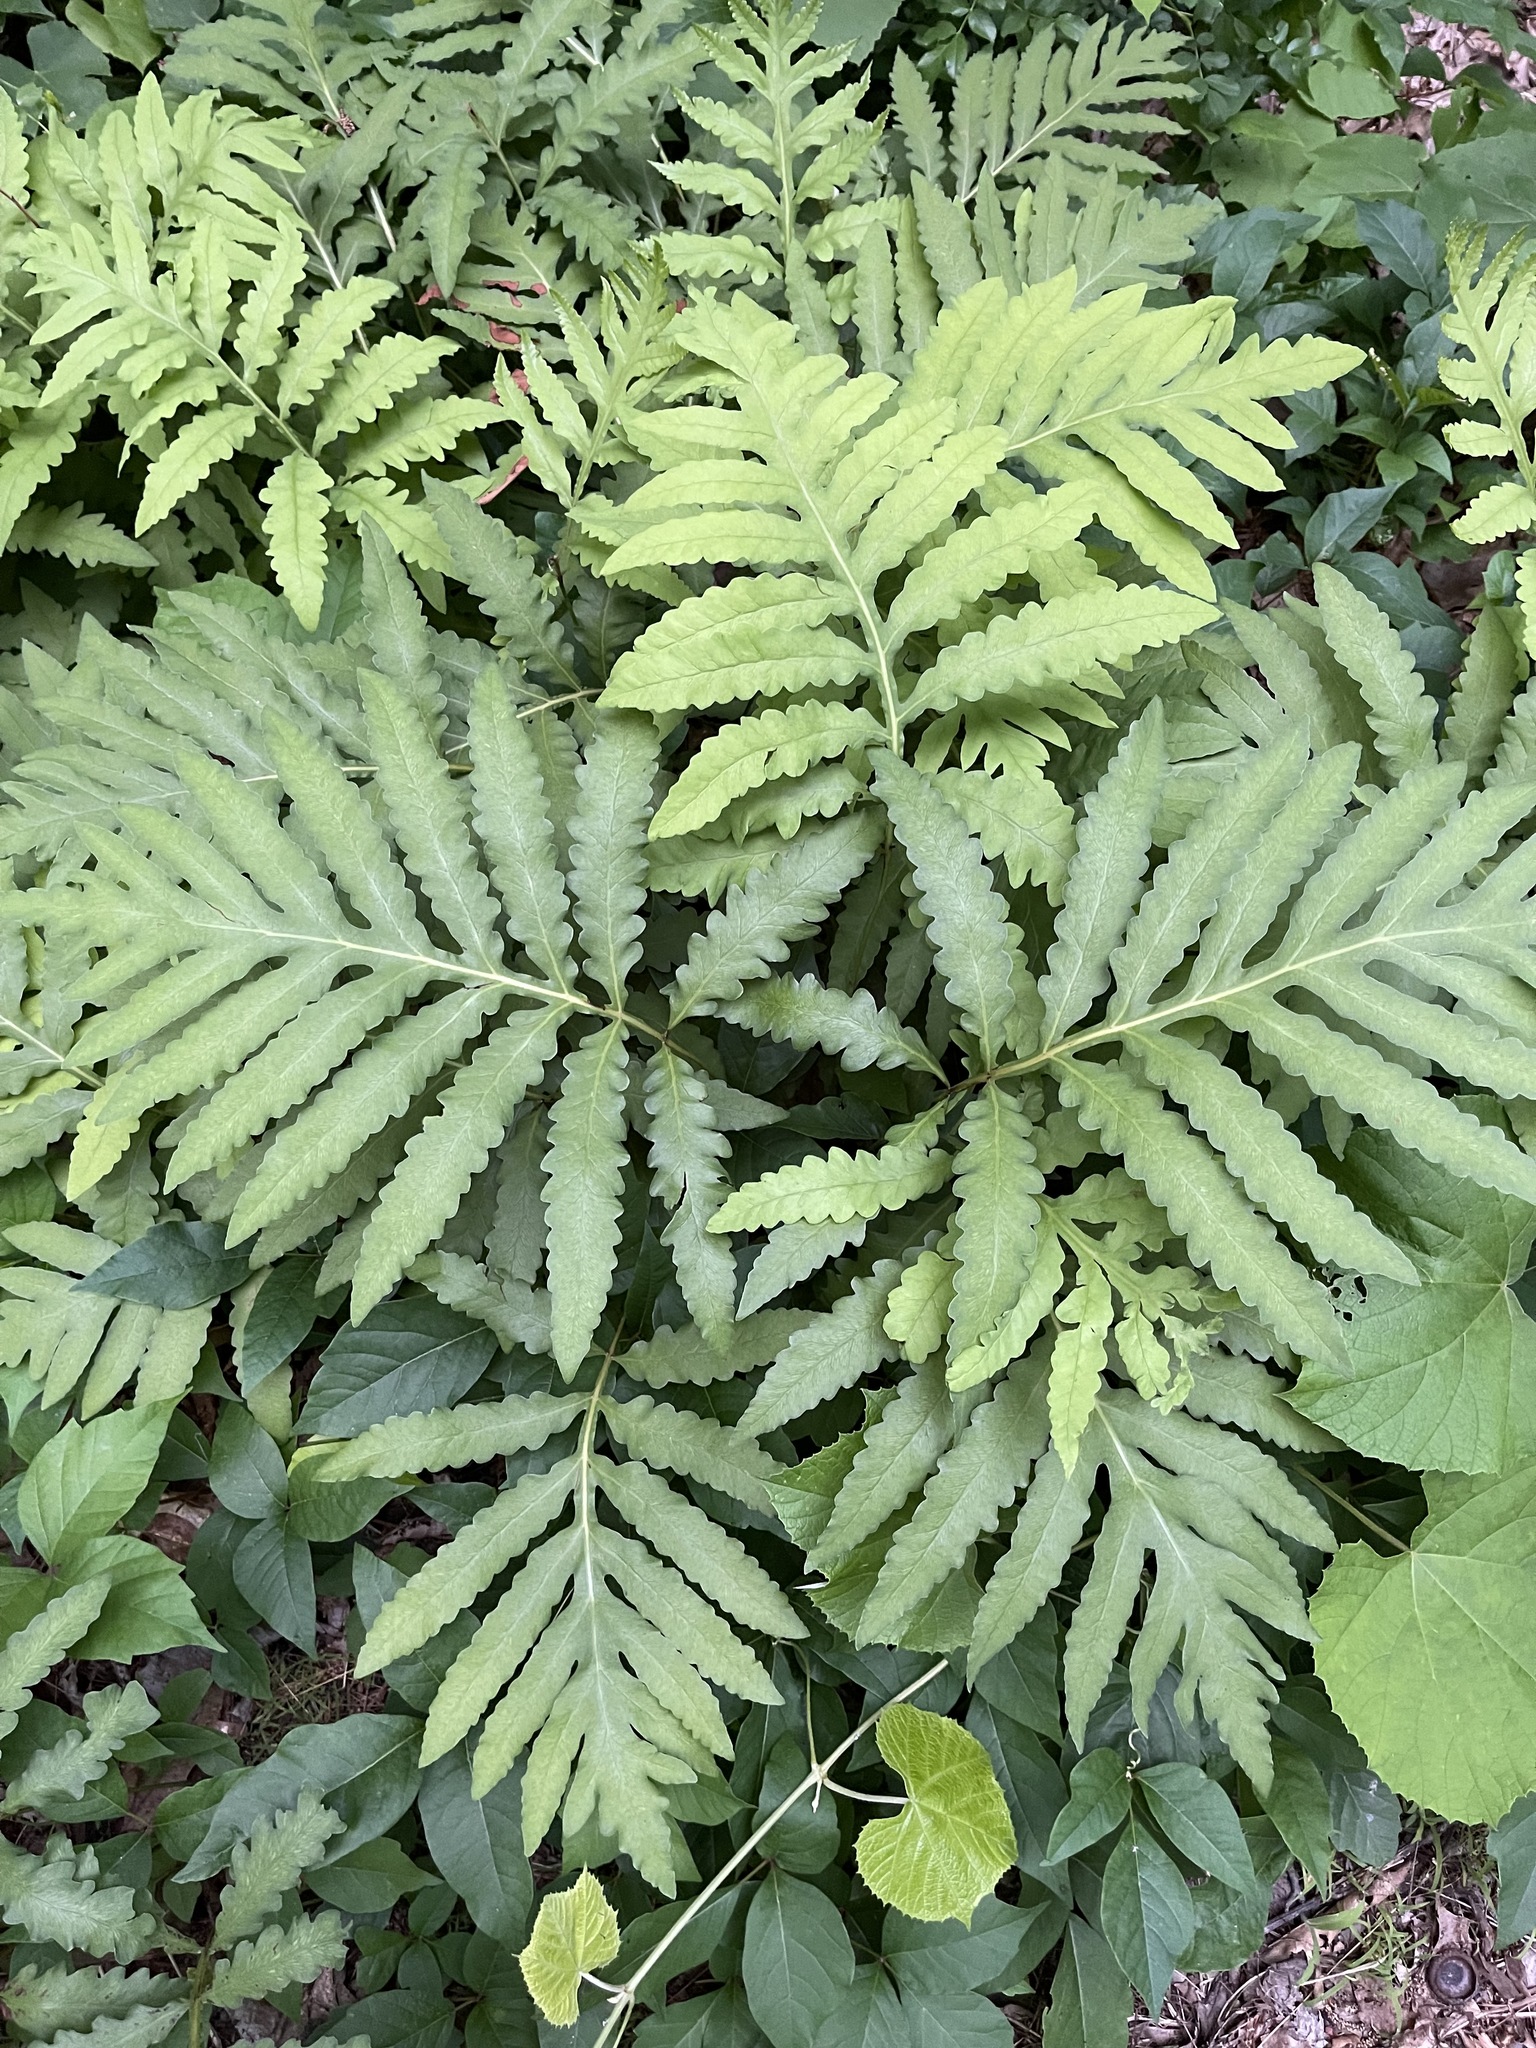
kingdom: Plantae
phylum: Tracheophyta
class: Polypodiopsida
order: Polypodiales
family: Onocleaceae
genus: Onoclea
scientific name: Onoclea sensibilis
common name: Sensitive fern
